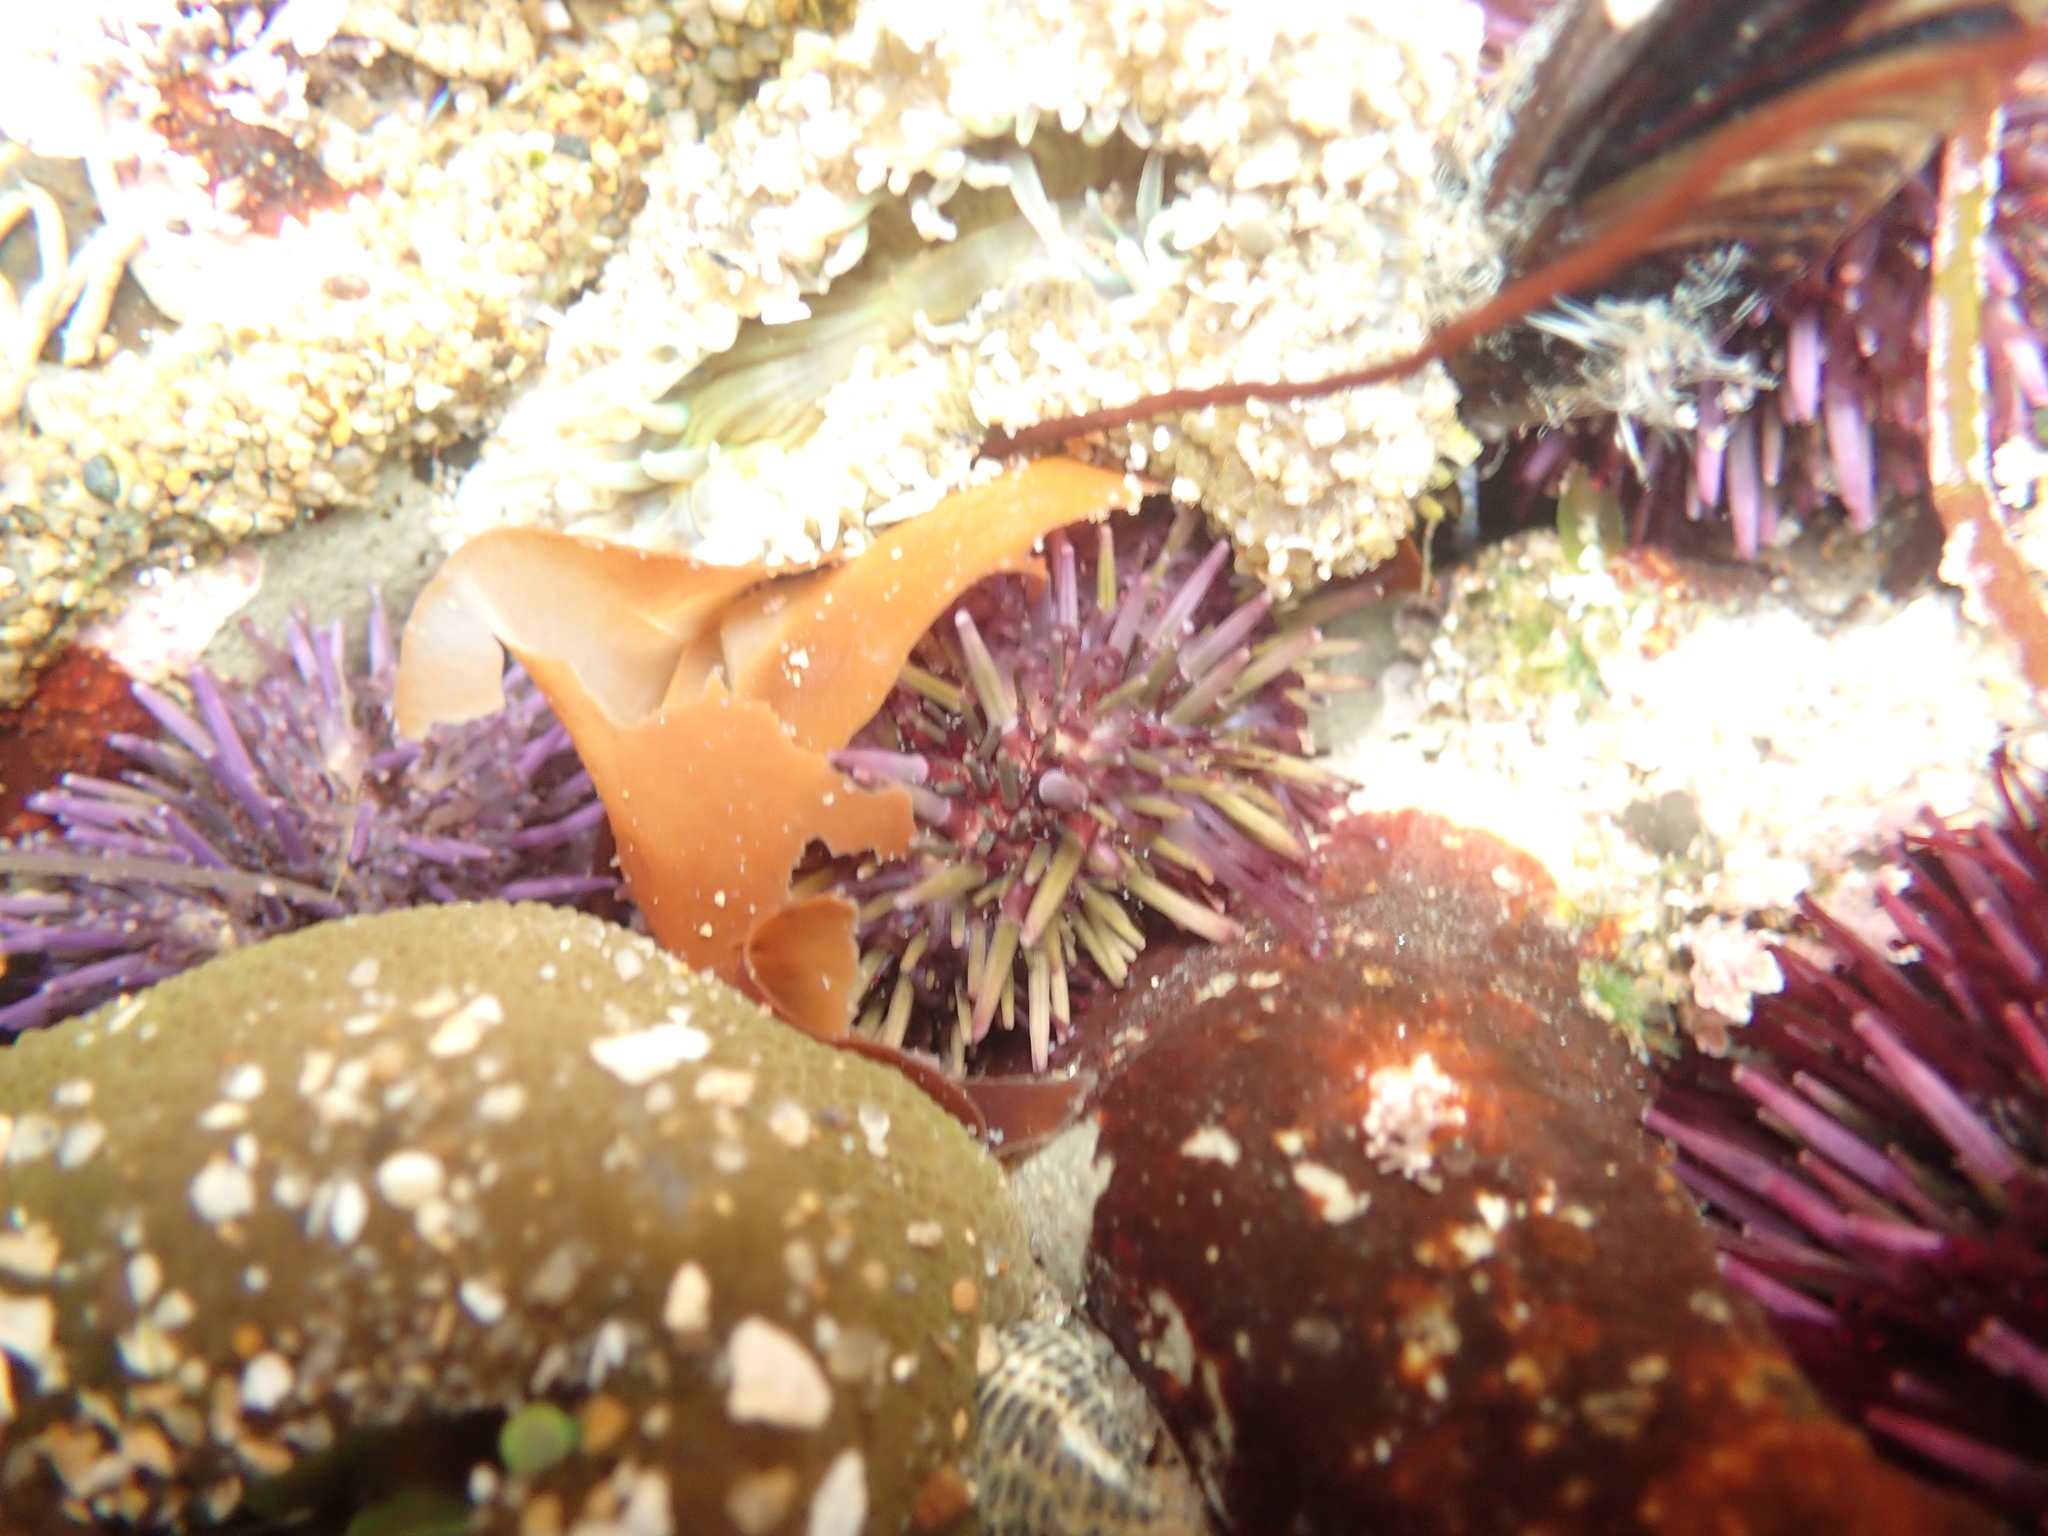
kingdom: Animalia
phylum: Echinodermata
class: Echinoidea
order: Camarodonta
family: Strongylocentrotidae
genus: Strongylocentrotus
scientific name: Strongylocentrotus purpuratus
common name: Purple sea urchin
